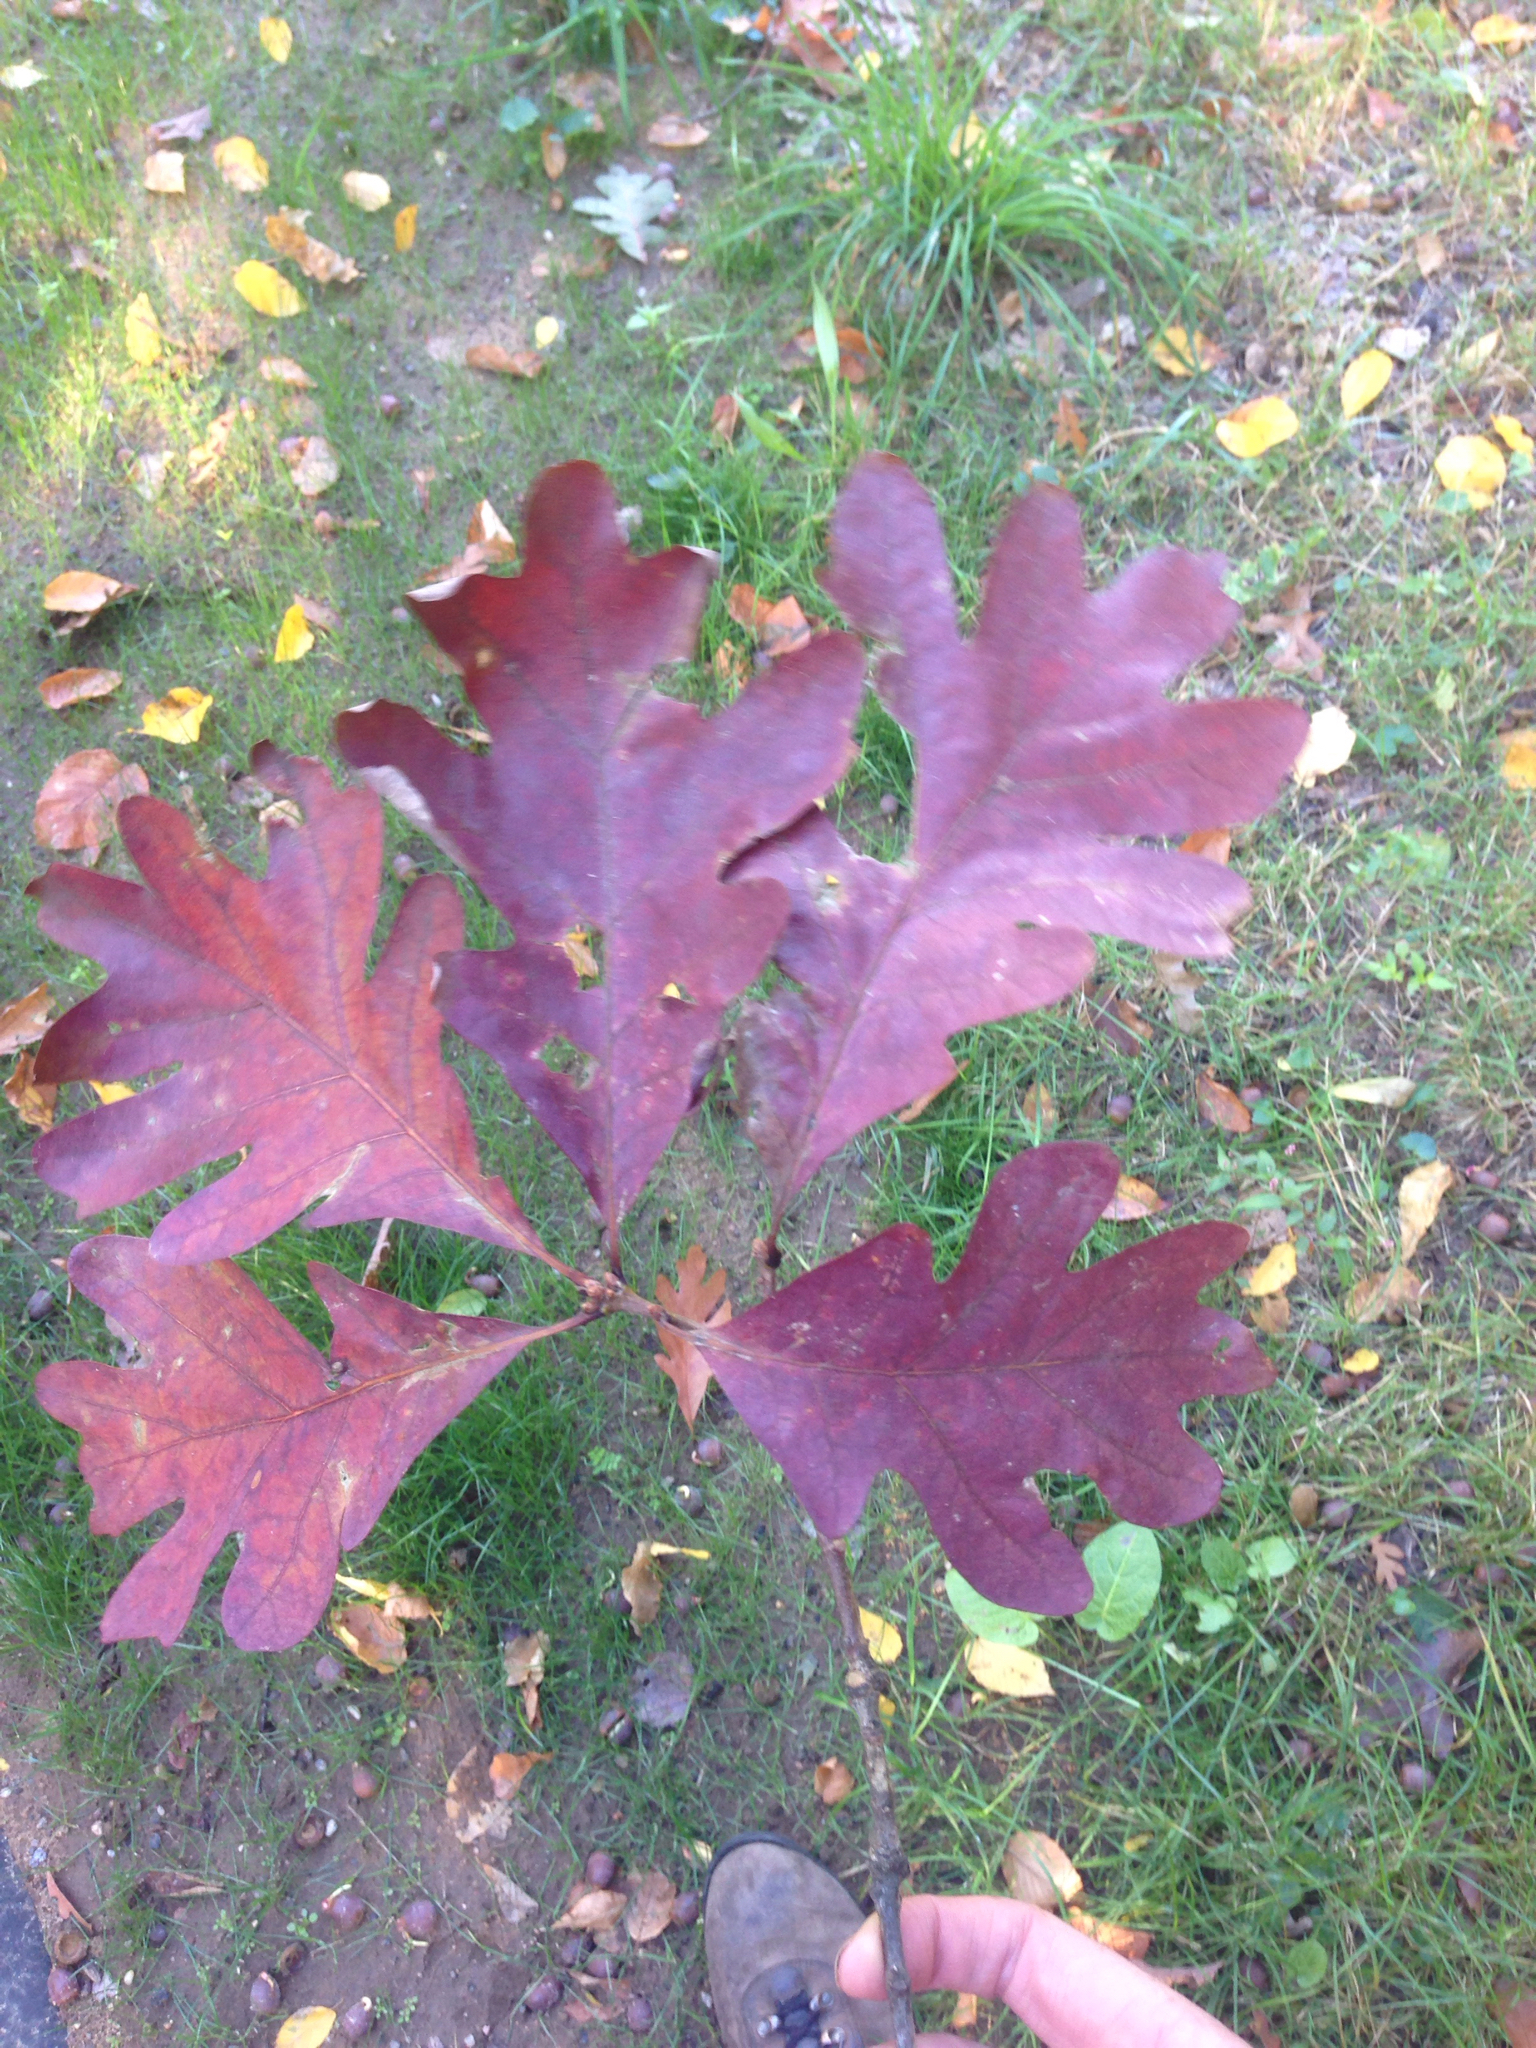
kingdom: Plantae
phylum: Tracheophyta
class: Magnoliopsida
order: Fagales
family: Fagaceae
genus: Quercus
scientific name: Quercus alba
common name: White oak
